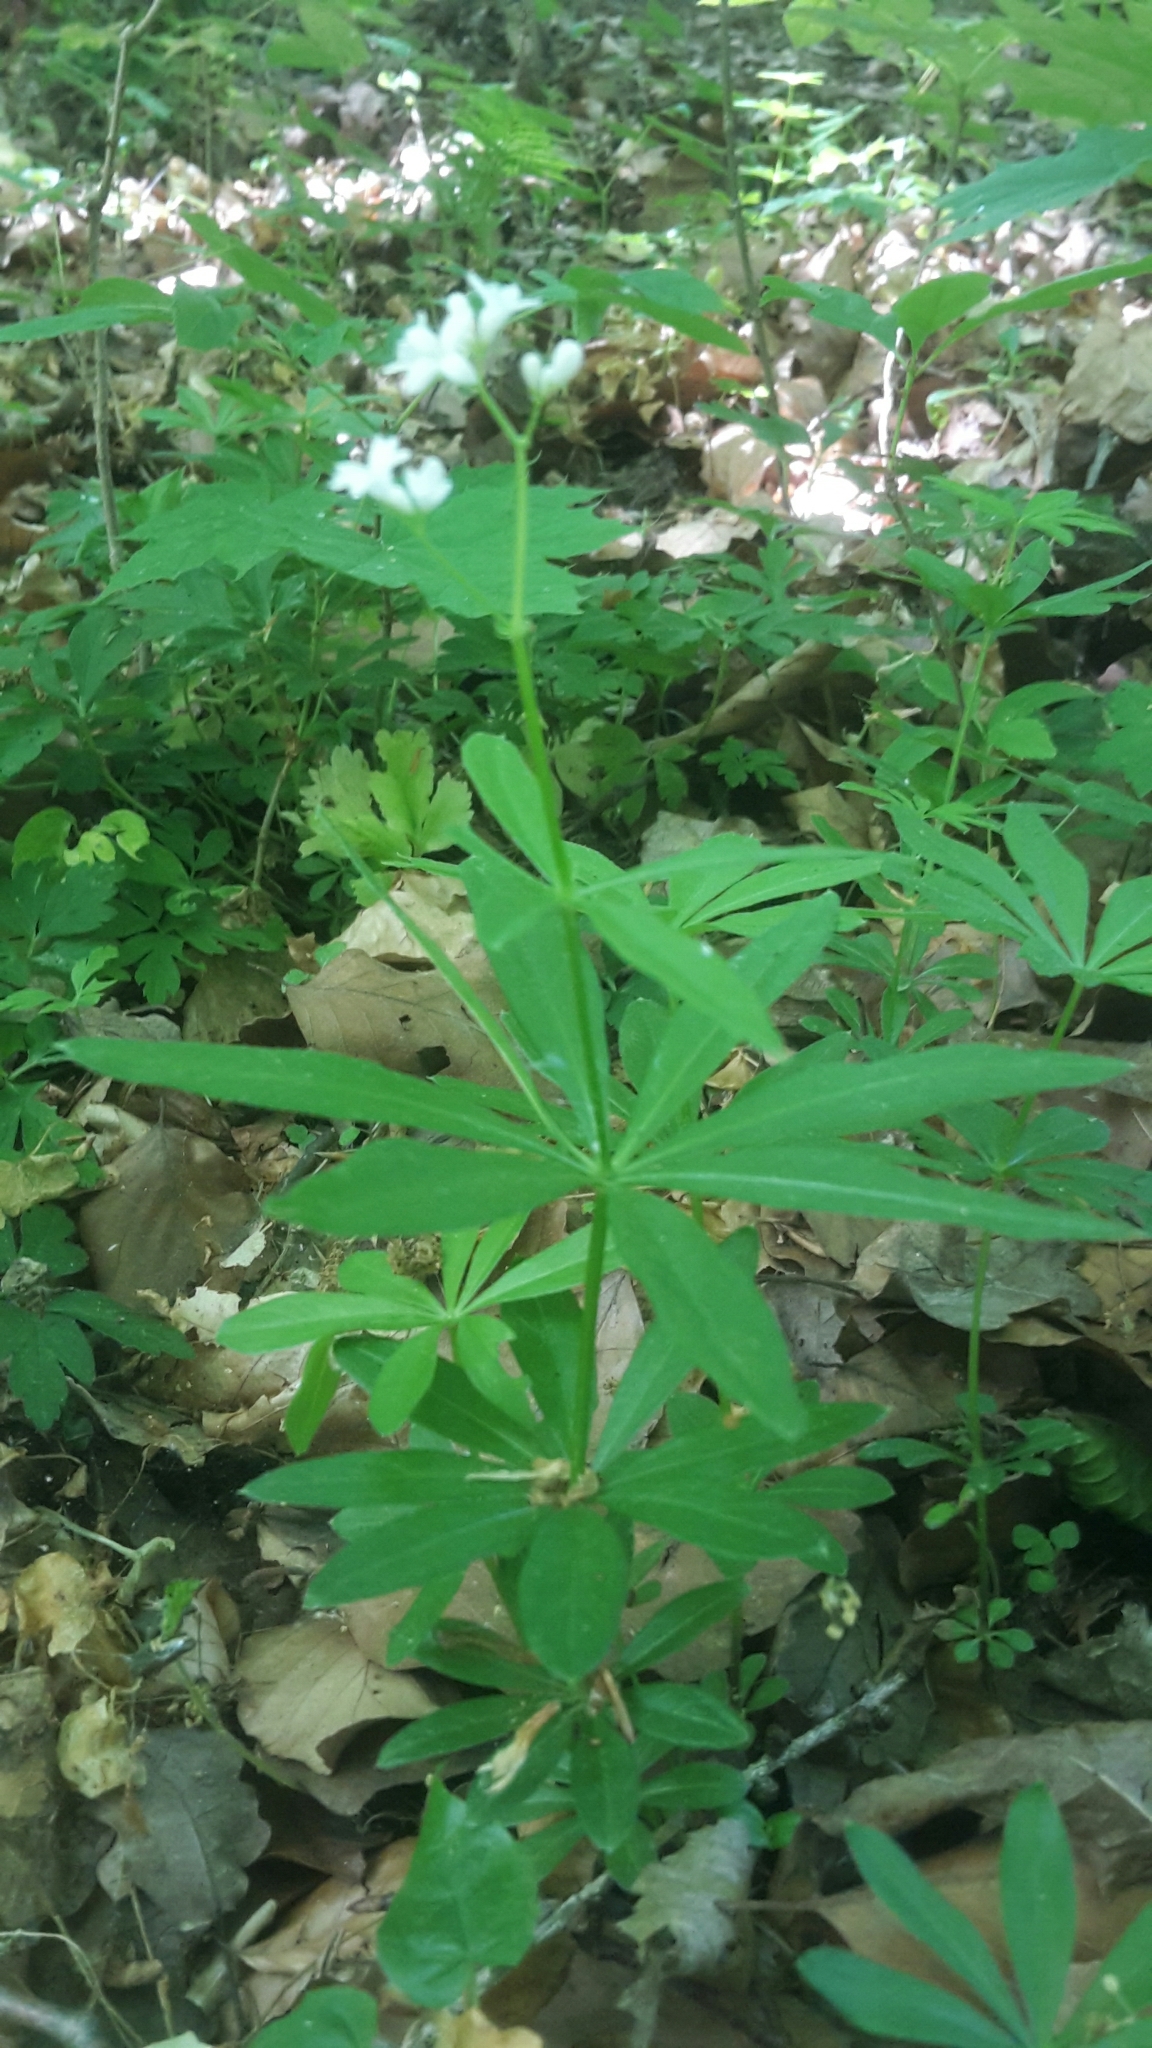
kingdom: Plantae
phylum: Tracheophyta
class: Magnoliopsida
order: Gentianales
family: Rubiaceae
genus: Galium
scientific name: Galium odoratum
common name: Sweet woodruff
